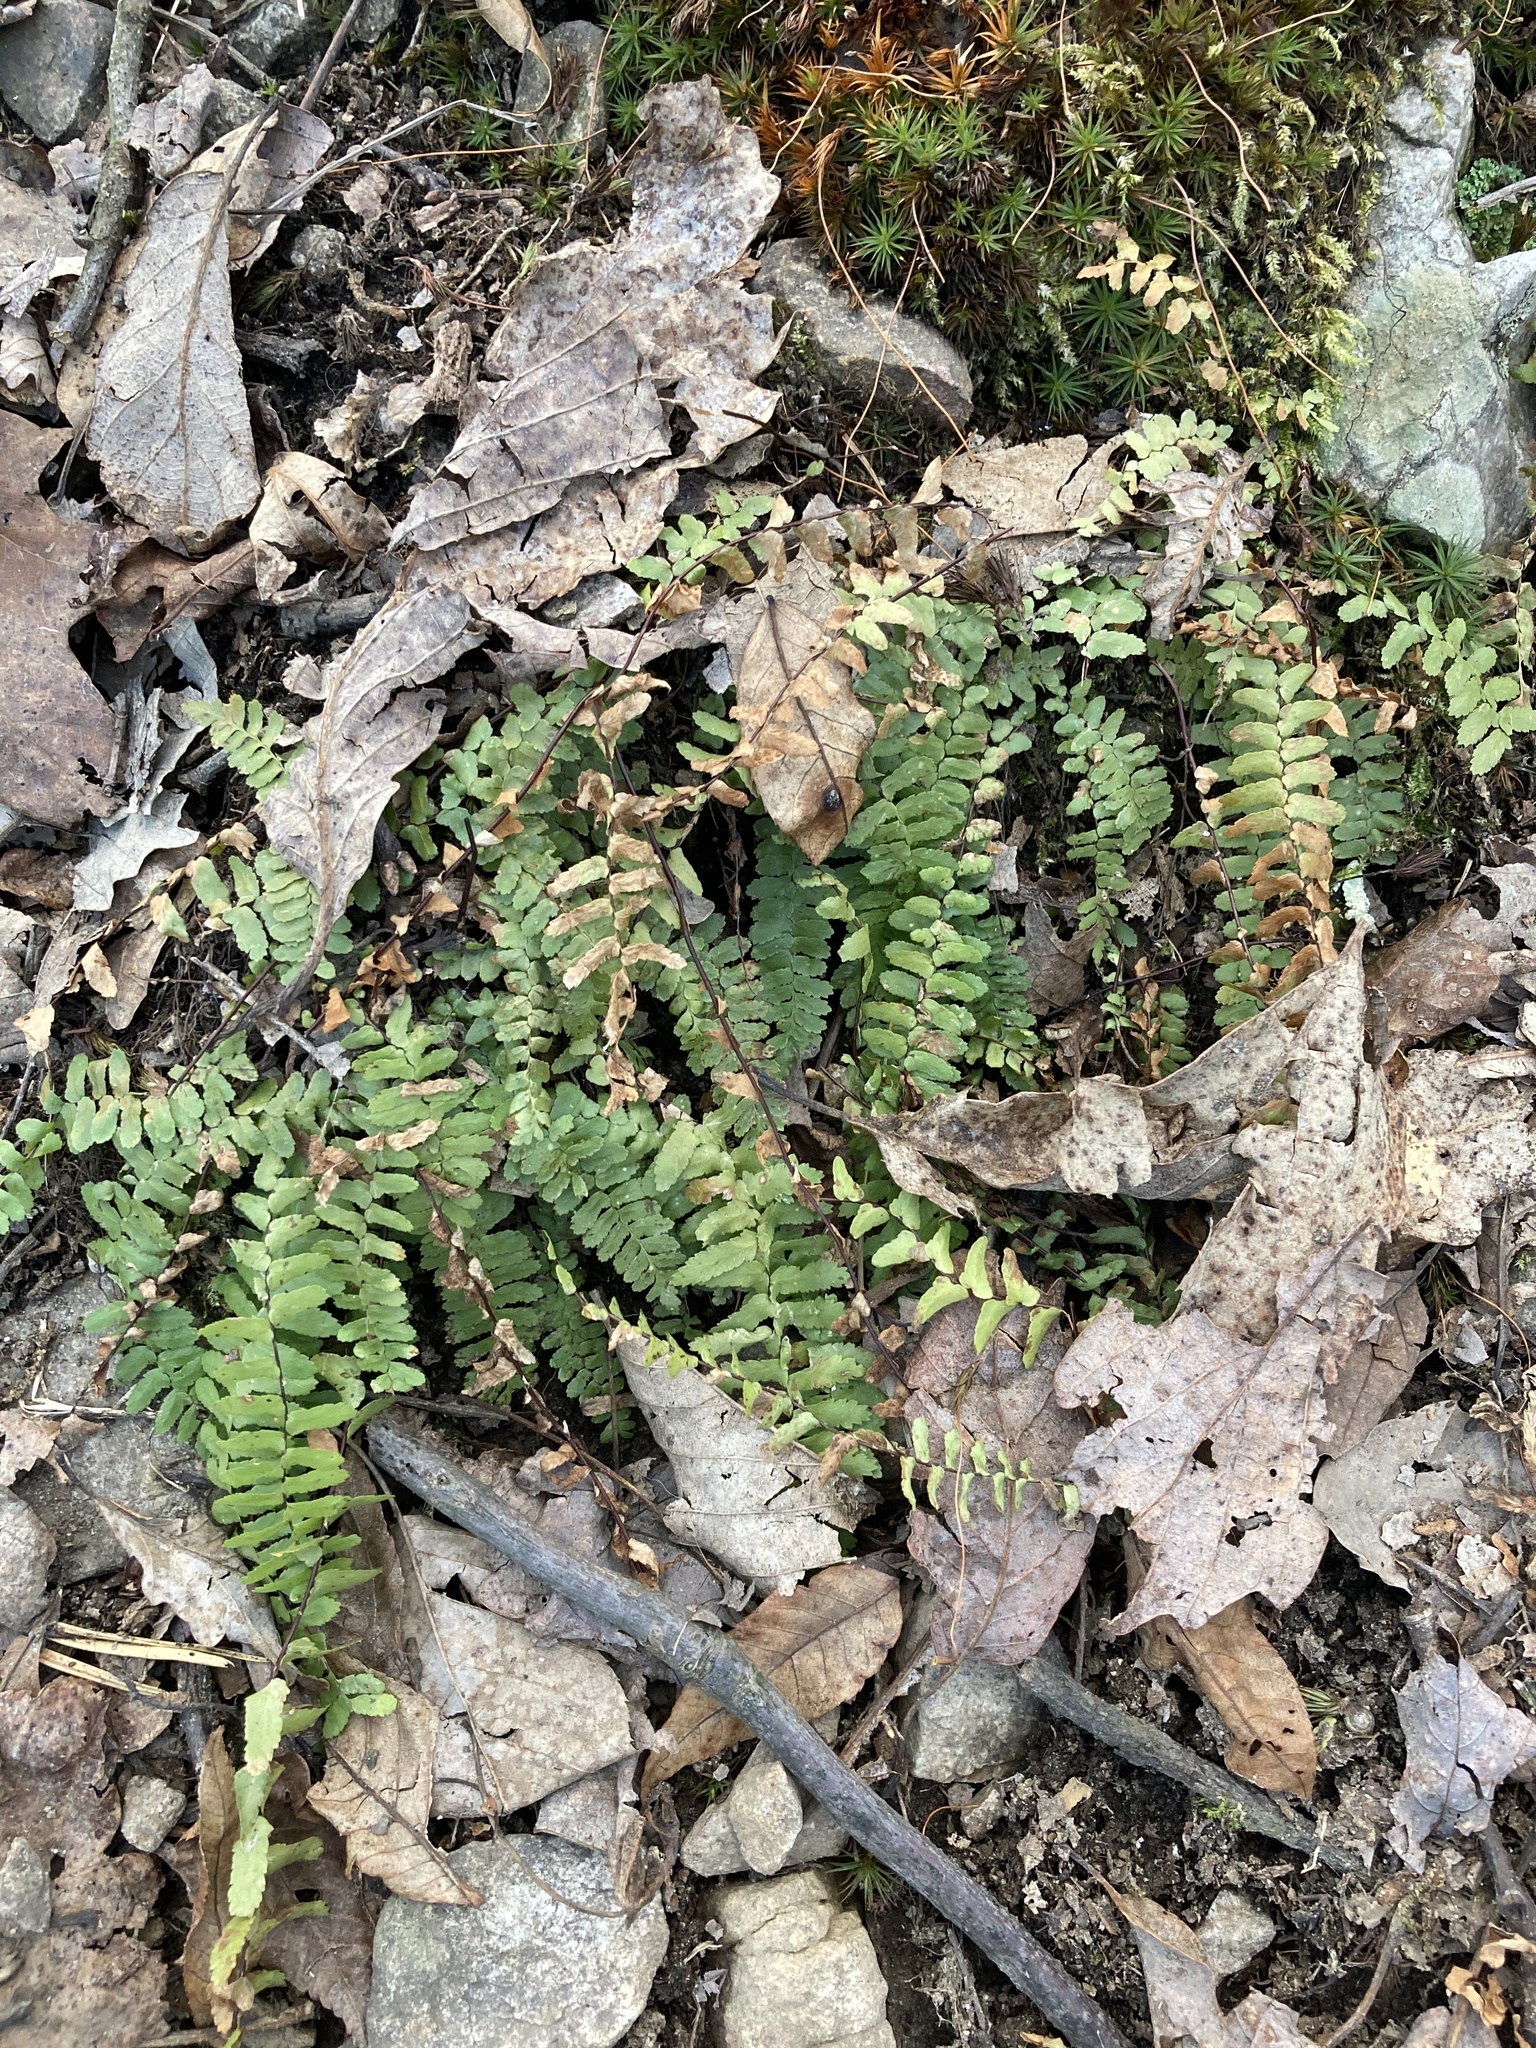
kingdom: Plantae
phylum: Tracheophyta
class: Polypodiopsida
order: Polypodiales
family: Aspleniaceae
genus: Asplenium
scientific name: Asplenium platyneuron
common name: Ebony spleenwort
